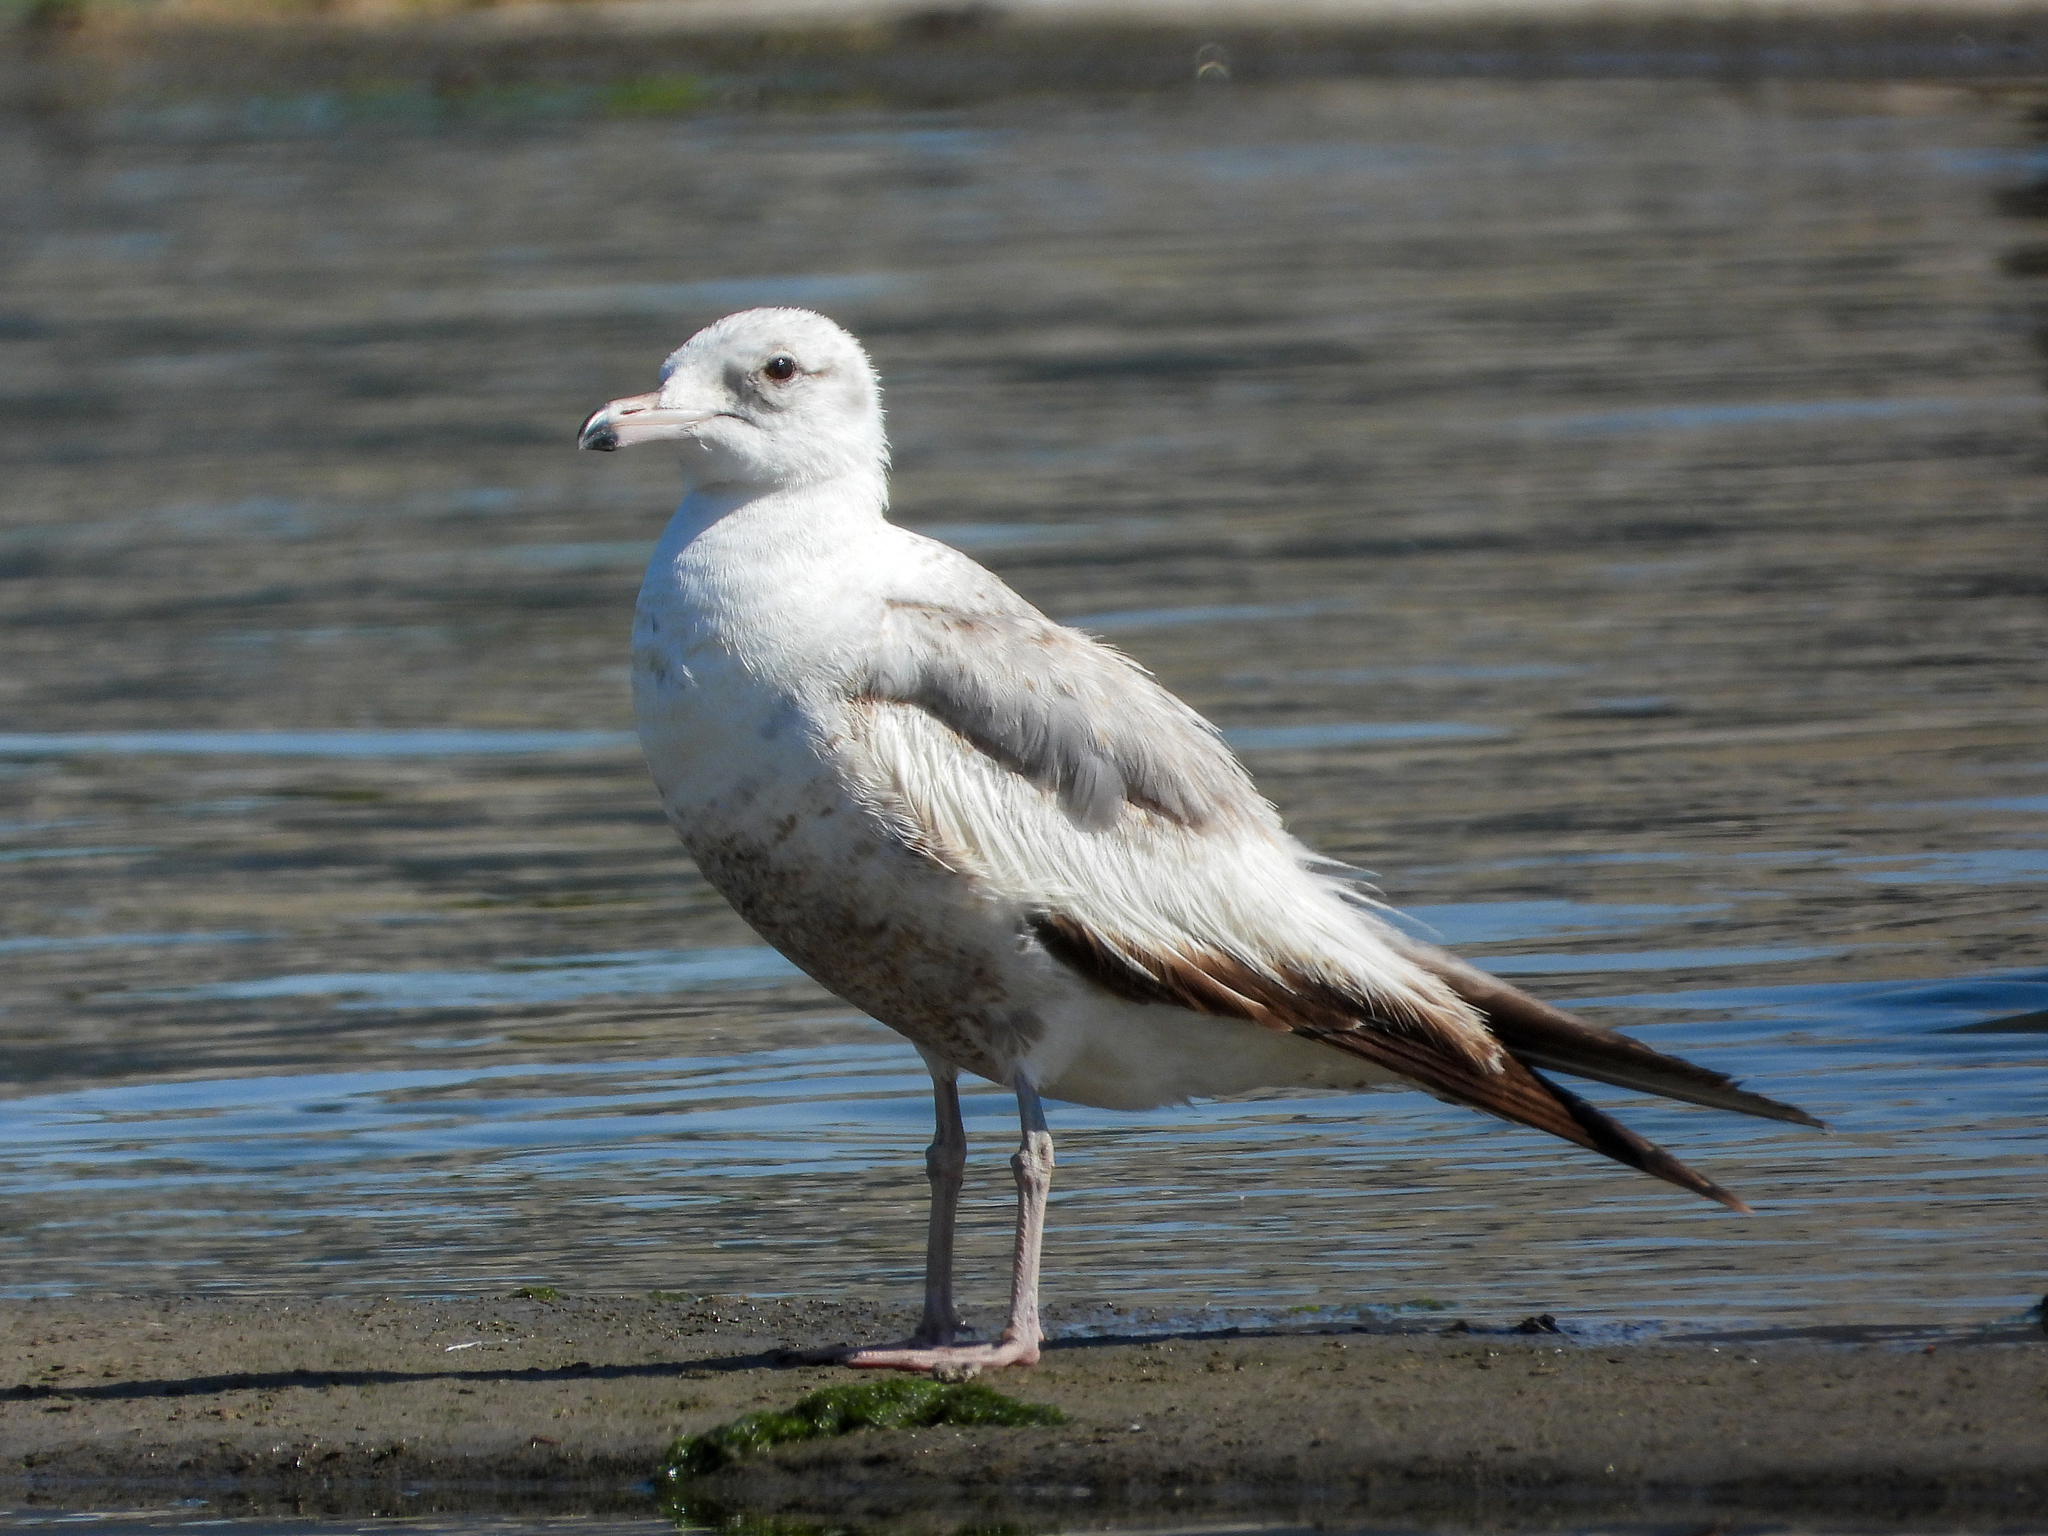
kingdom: Animalia
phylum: Chordata
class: Aves
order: Charadriiformes
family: Laridae
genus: Larus
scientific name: Larus californicus
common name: California gull
